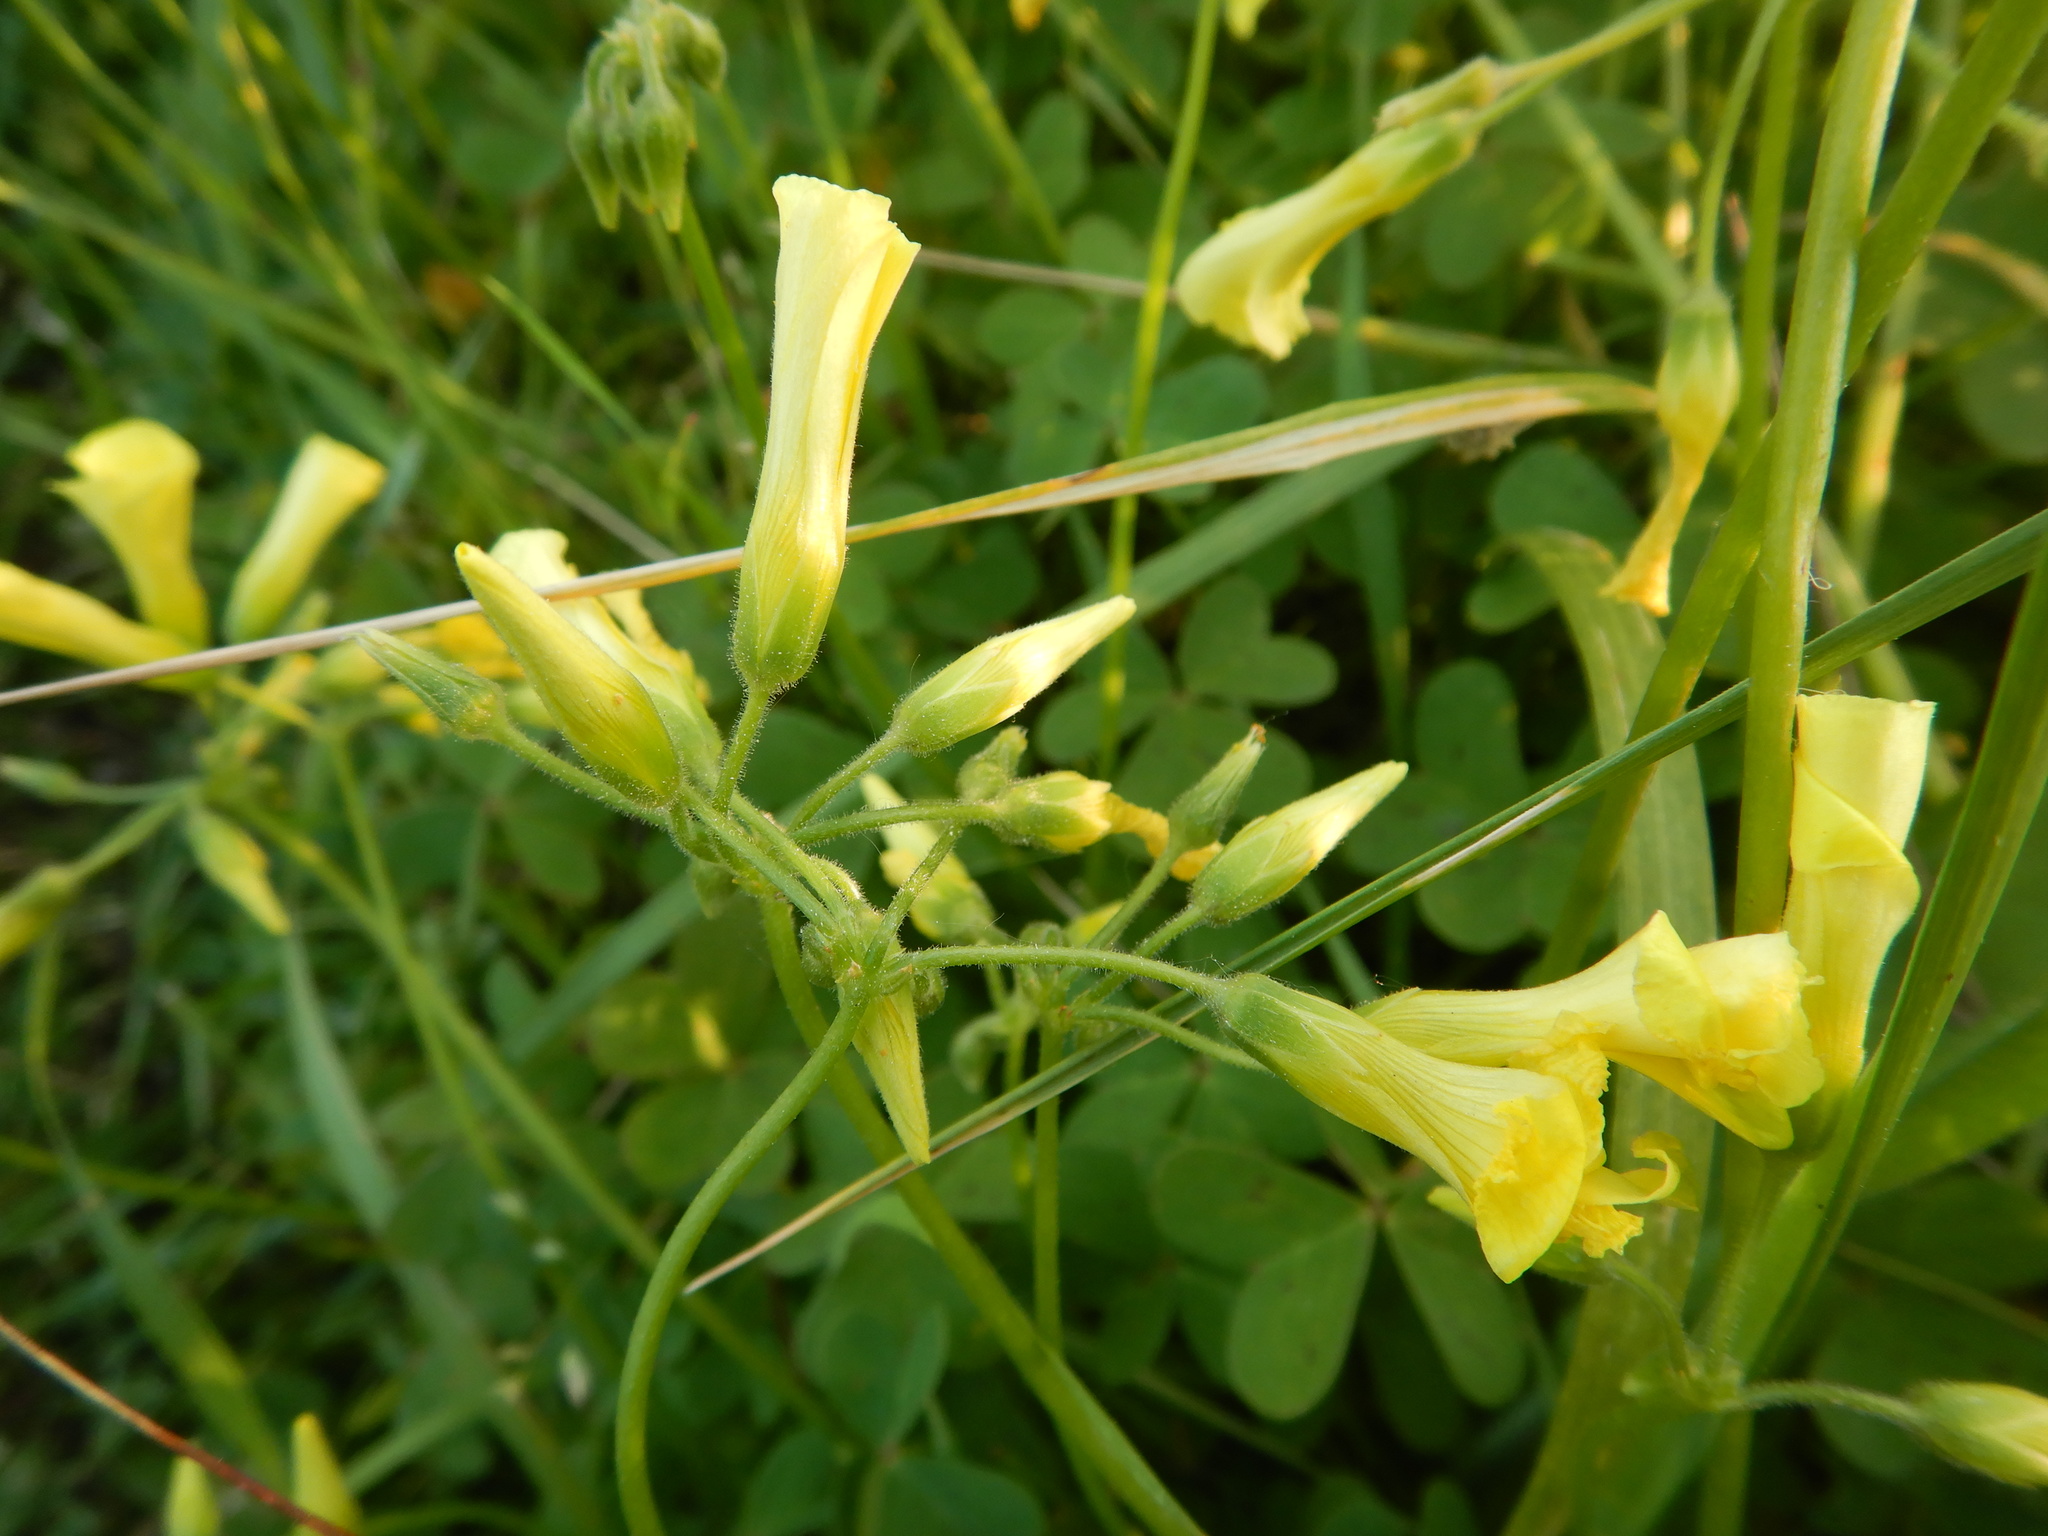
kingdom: Plantae
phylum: Tracheophyta
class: Magnoliopsida
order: Oxalidales
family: Oxalidaceae
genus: Oxalis
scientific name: Oxalis pes-caprae
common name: Bermuda-buttercup
